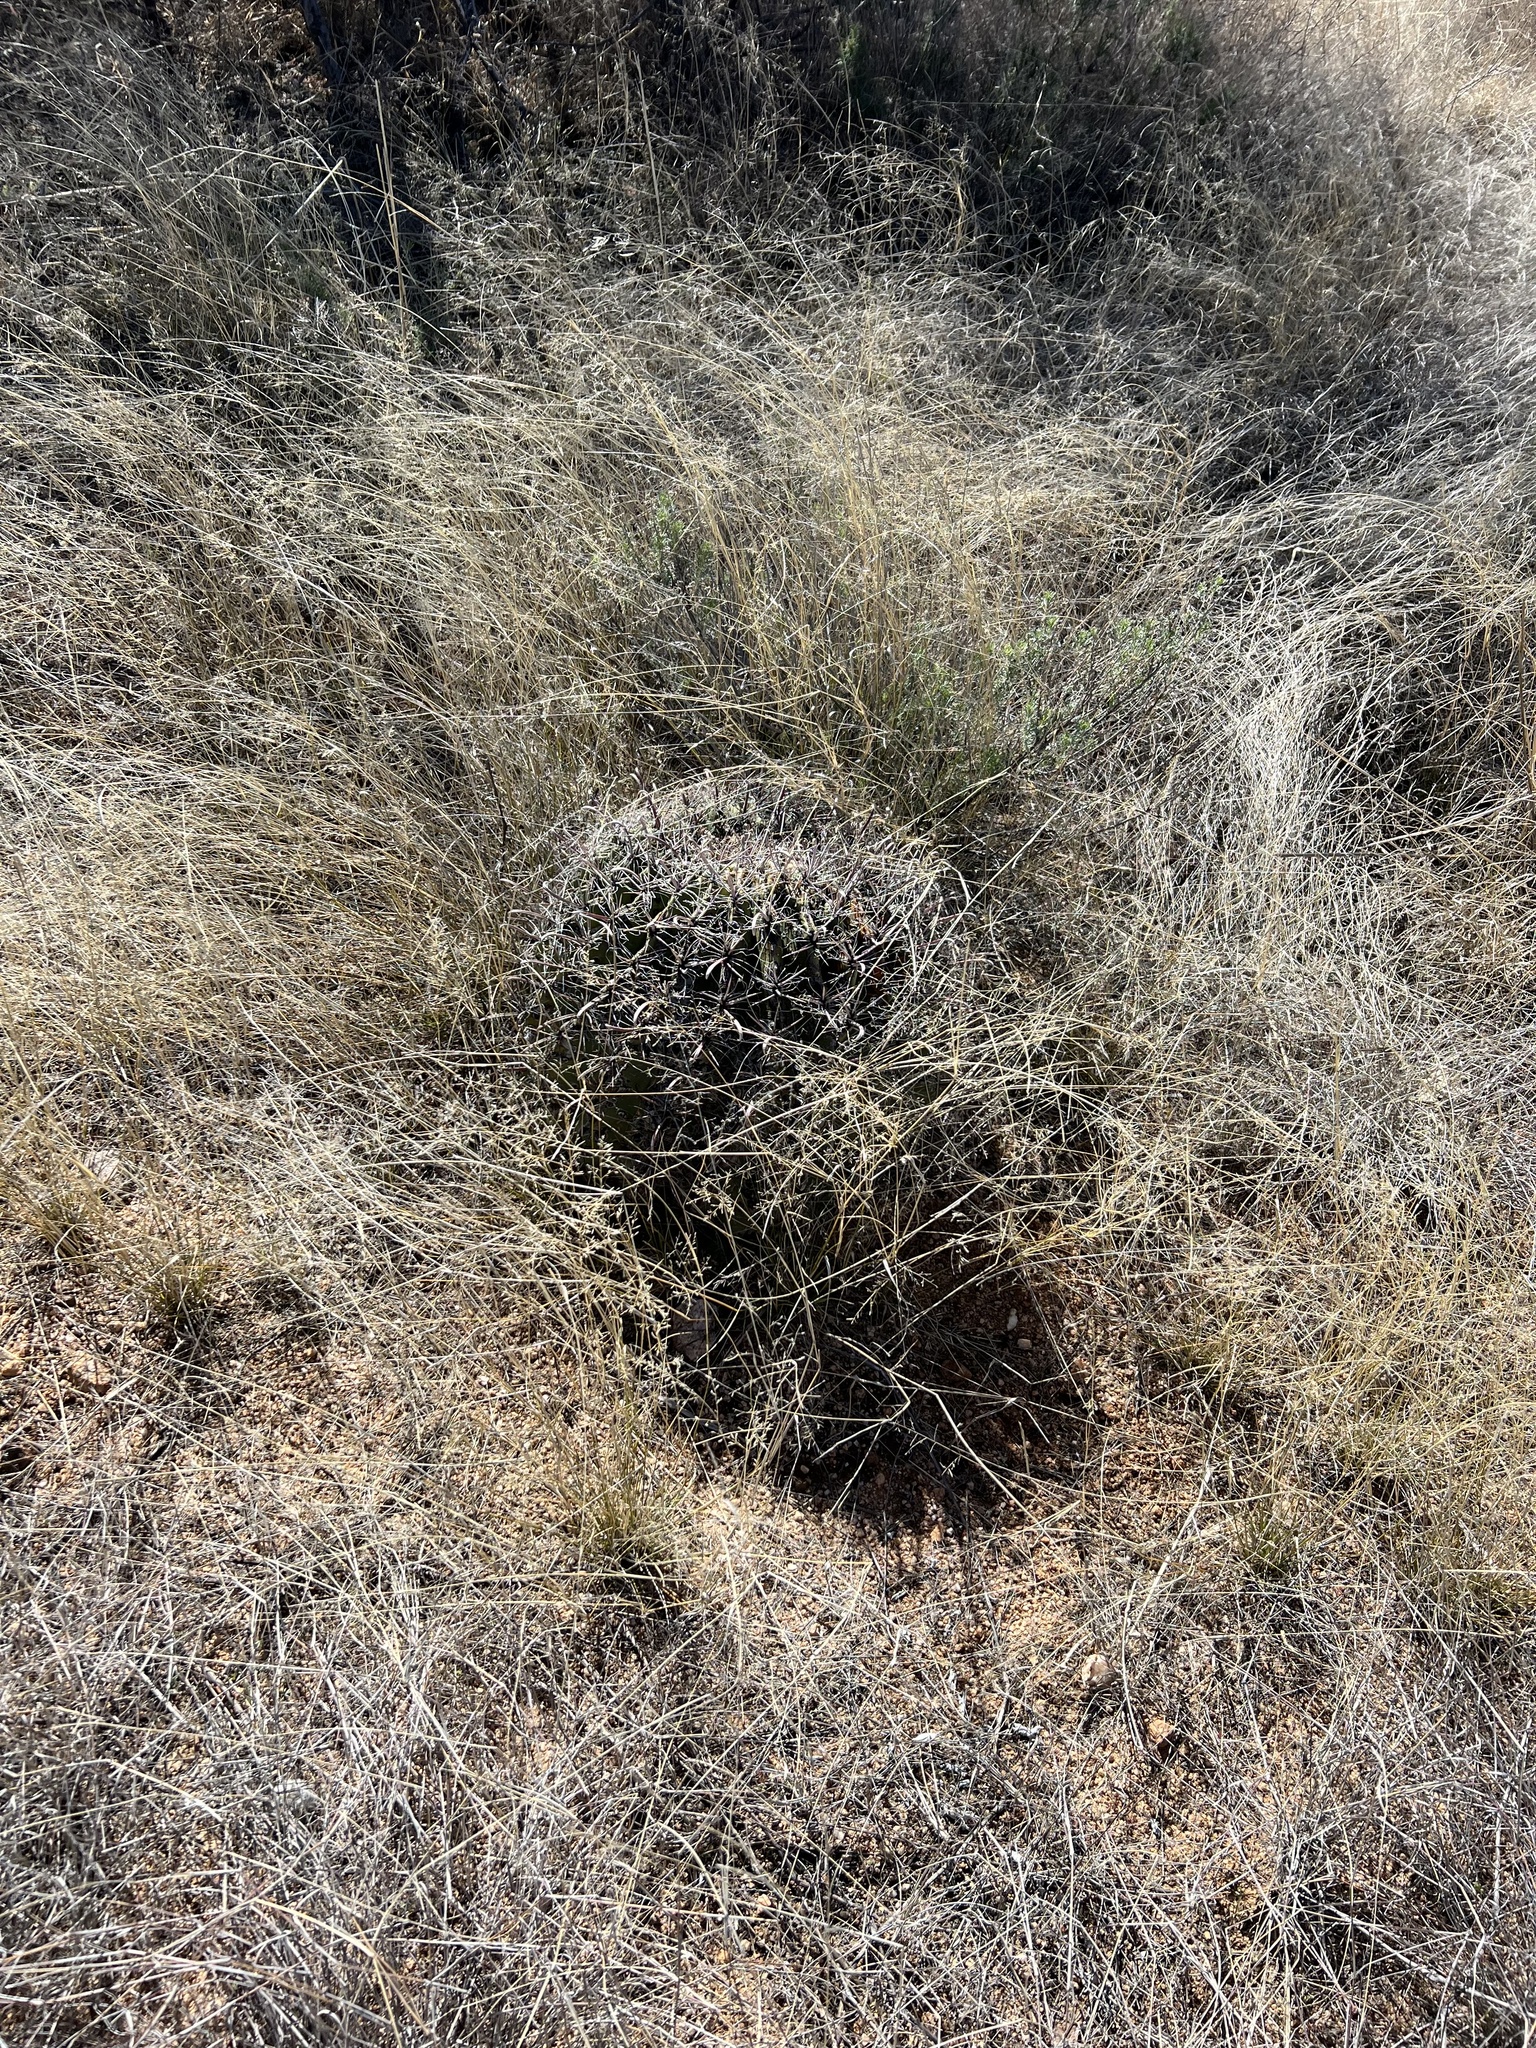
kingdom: Plantae
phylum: Tracheophyta
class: Magnoliopsida
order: Caryophyllales
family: Cactaceae
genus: Ferocactus
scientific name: Ferocactus wislizeni
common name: Candy barrel cactus
